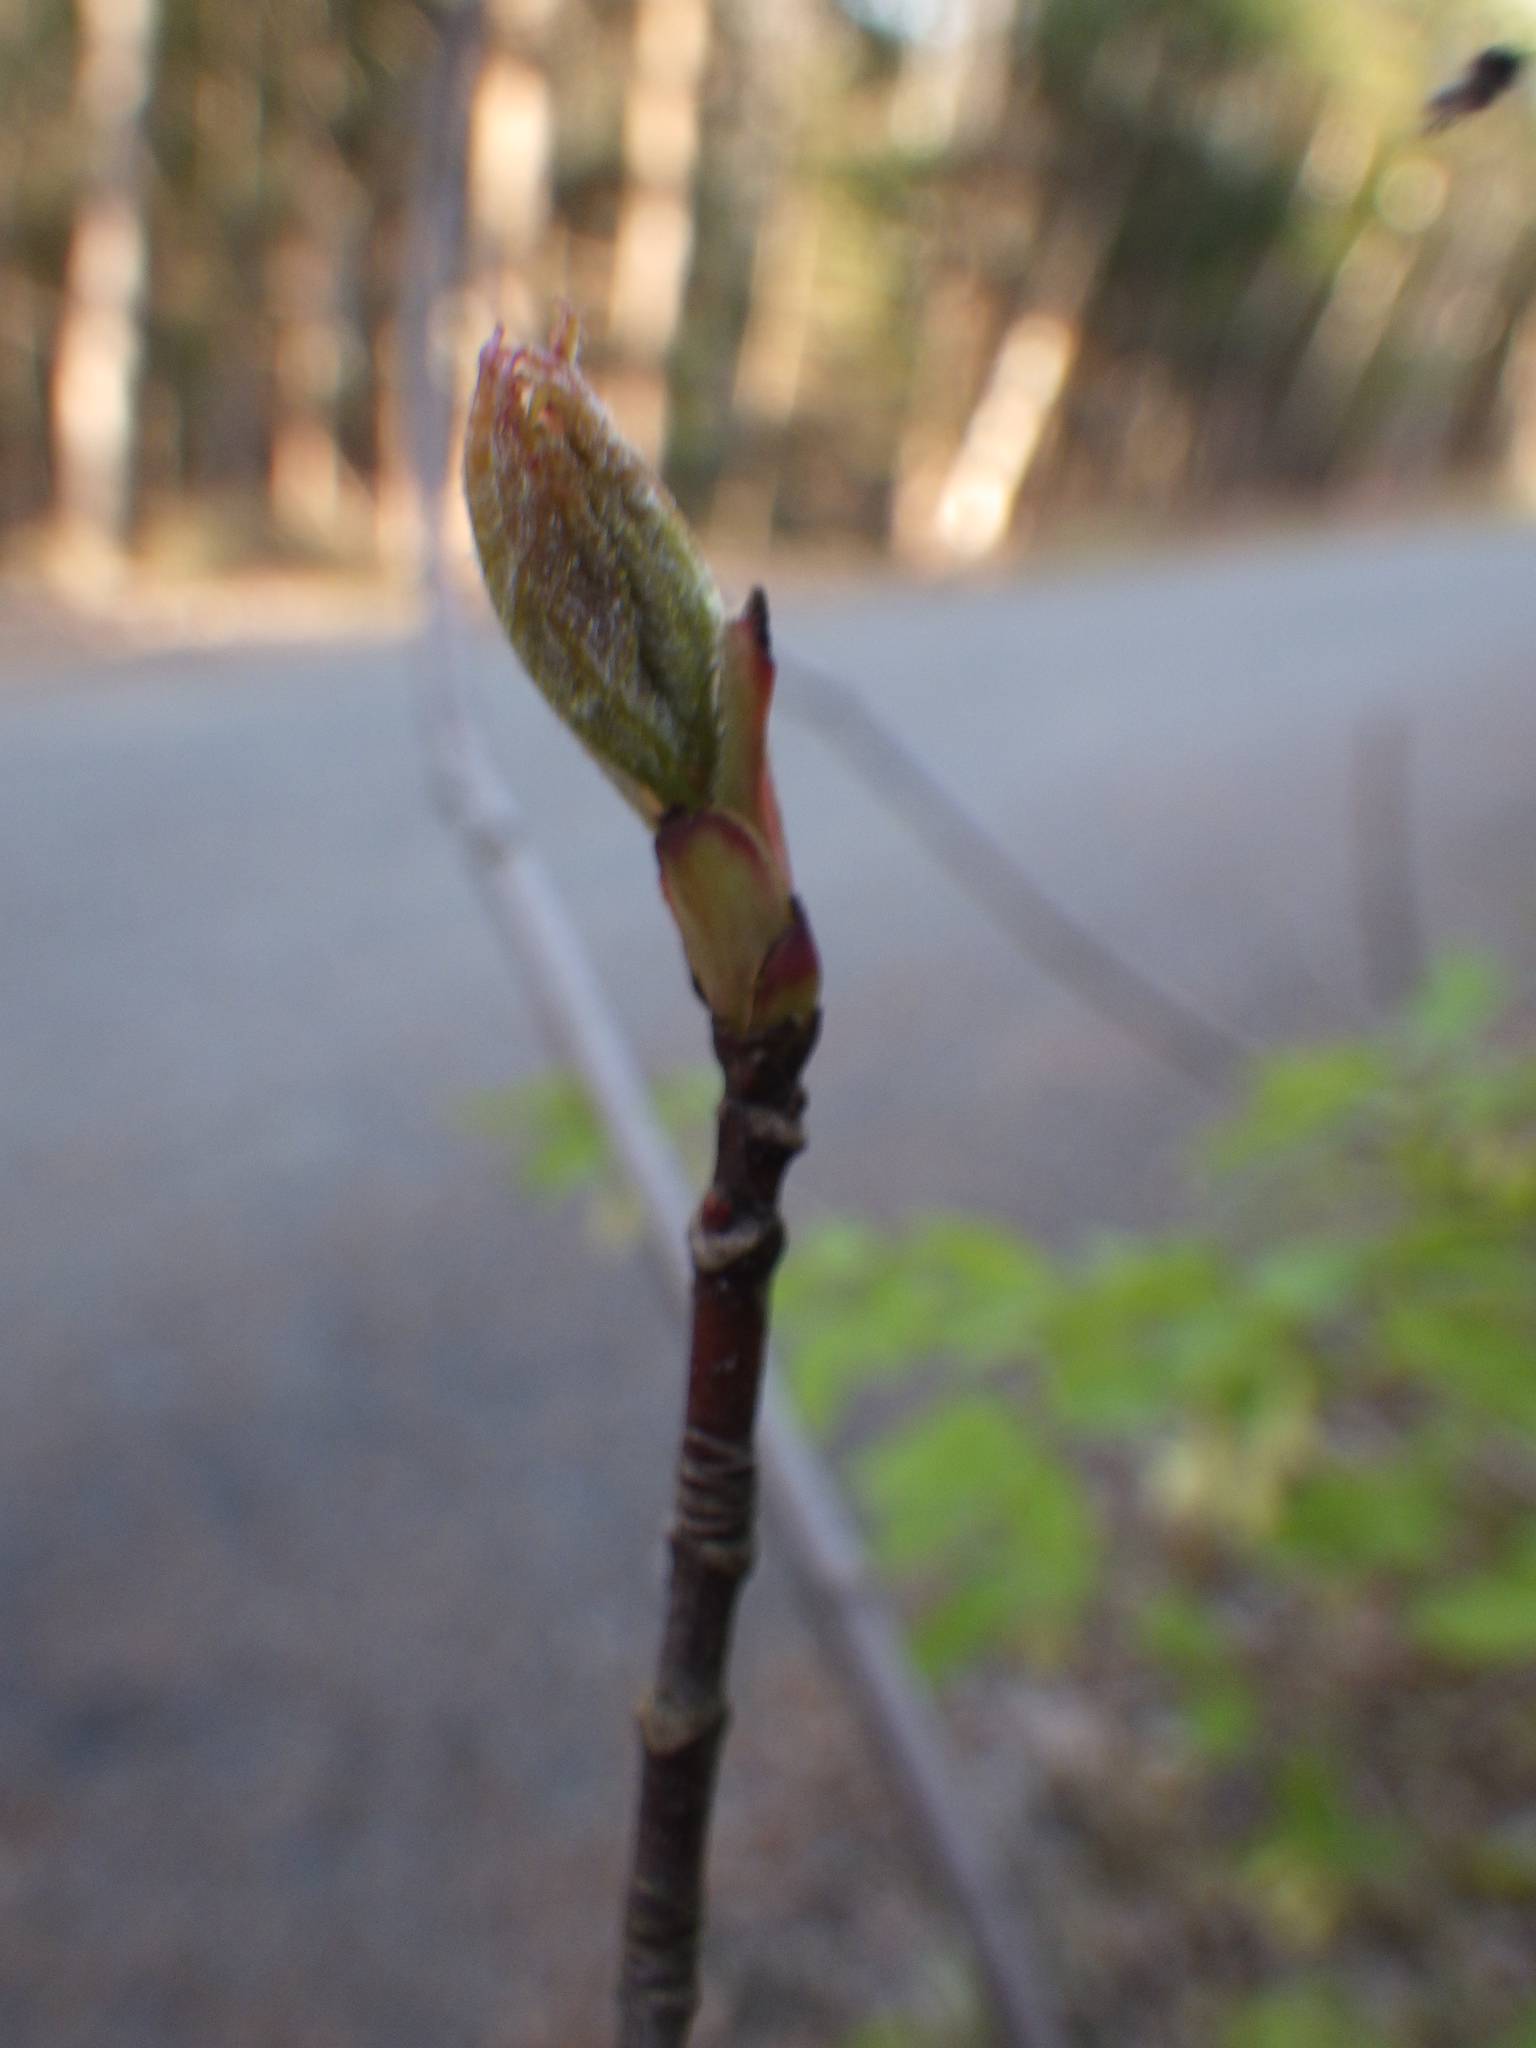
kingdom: Plantae
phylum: Tracheophyta
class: Magnoliopsida
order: Dipsacales
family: Caprifoliaceae
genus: Lonicera
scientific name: Lonicera canadensis
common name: American fly-honeysuckle
